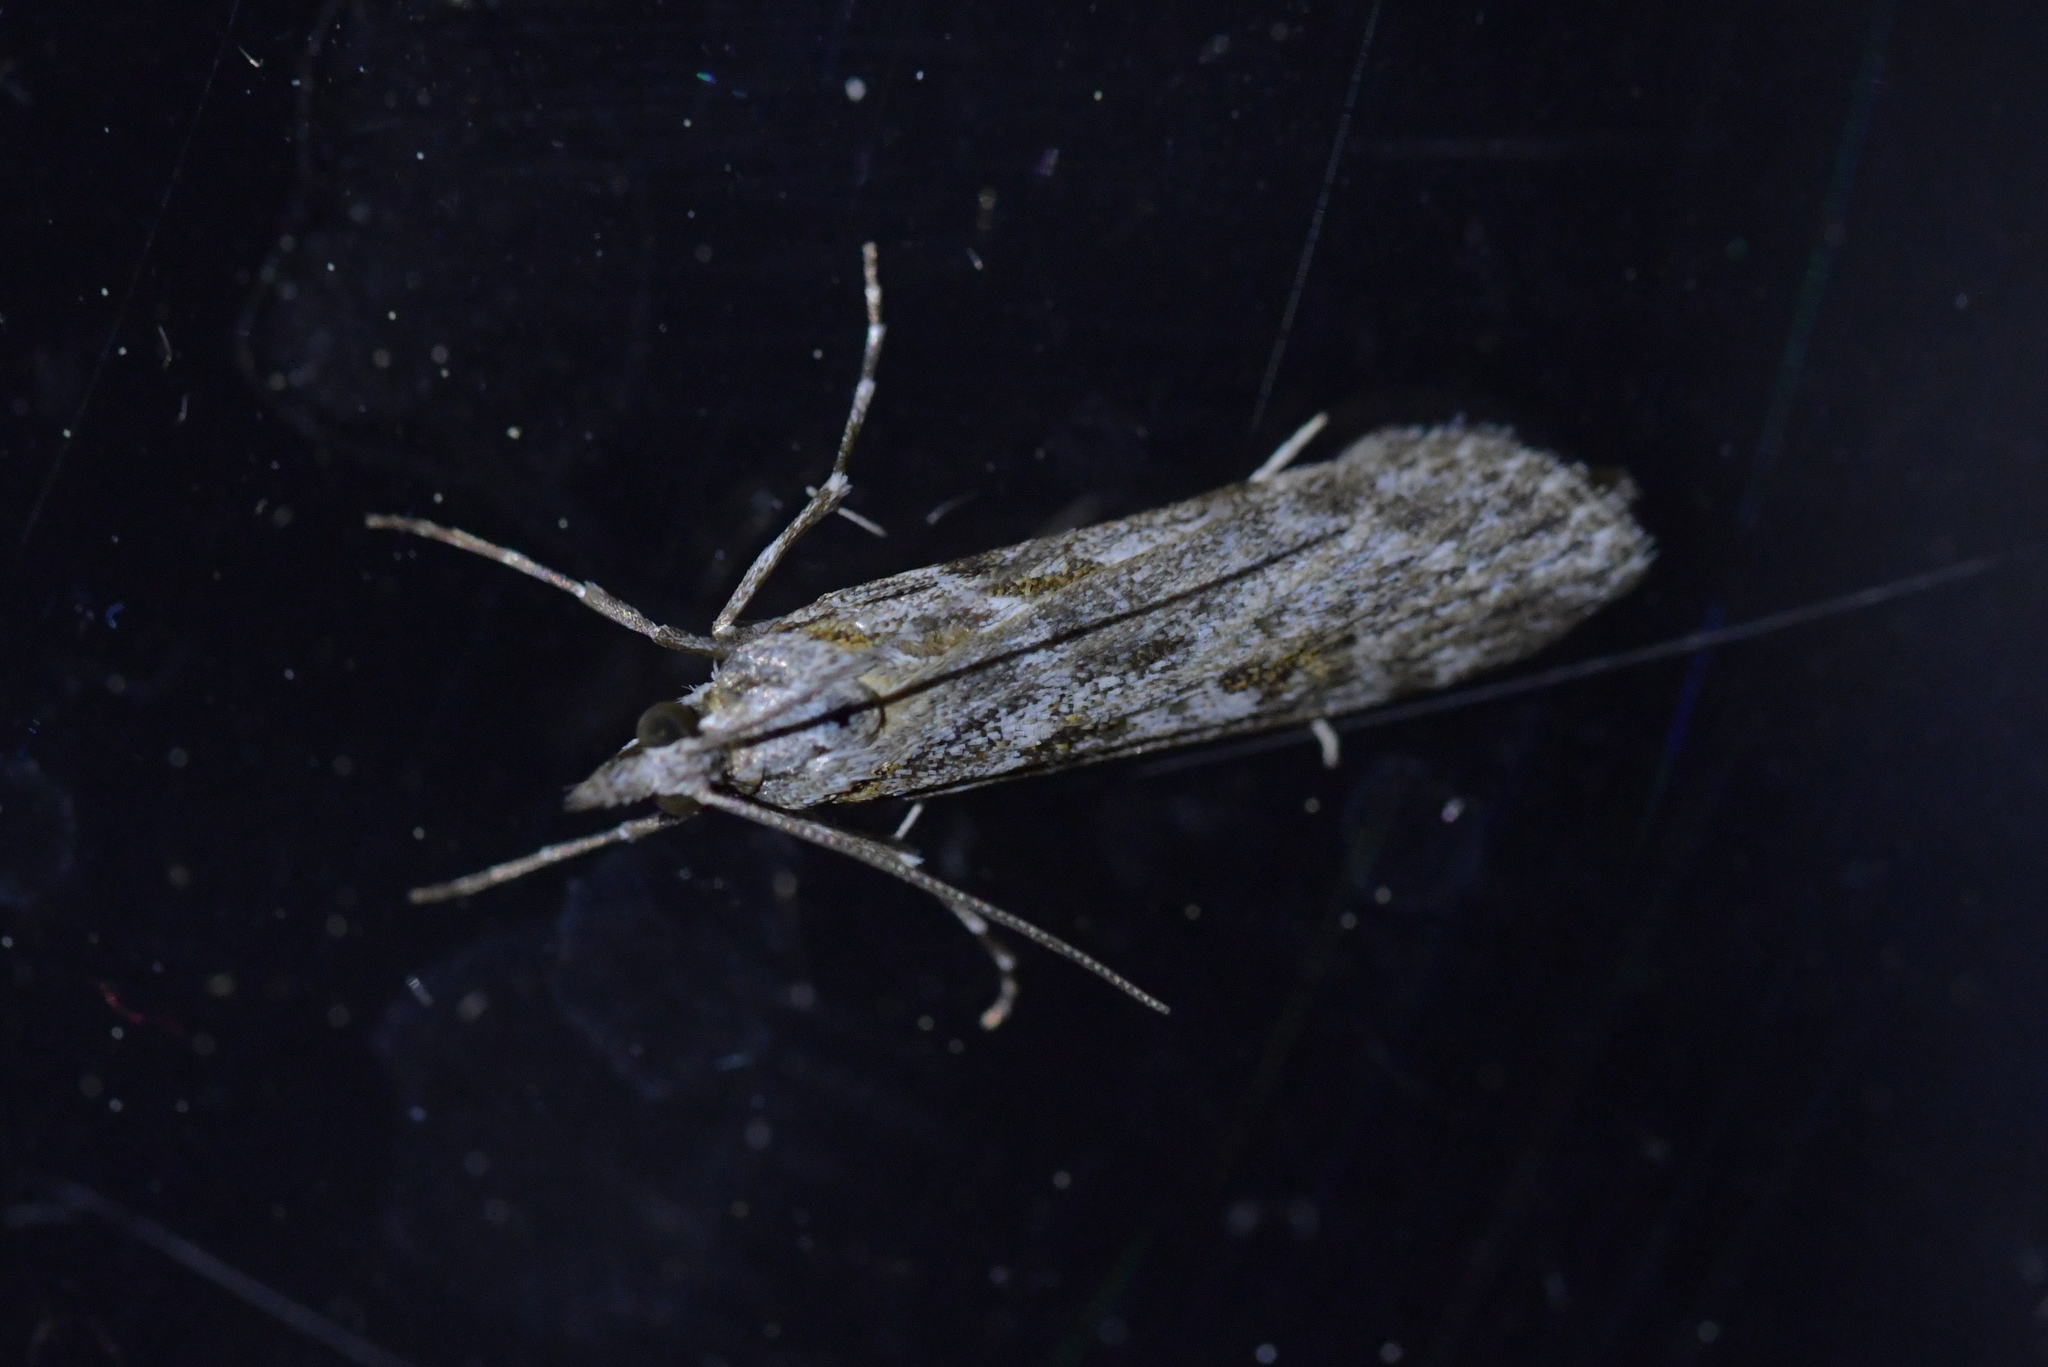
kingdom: Animalia
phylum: Arthropoda
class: Insecta
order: Lepidoptera
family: Crambidae
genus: Scoparia
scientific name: Scoparia halopis
